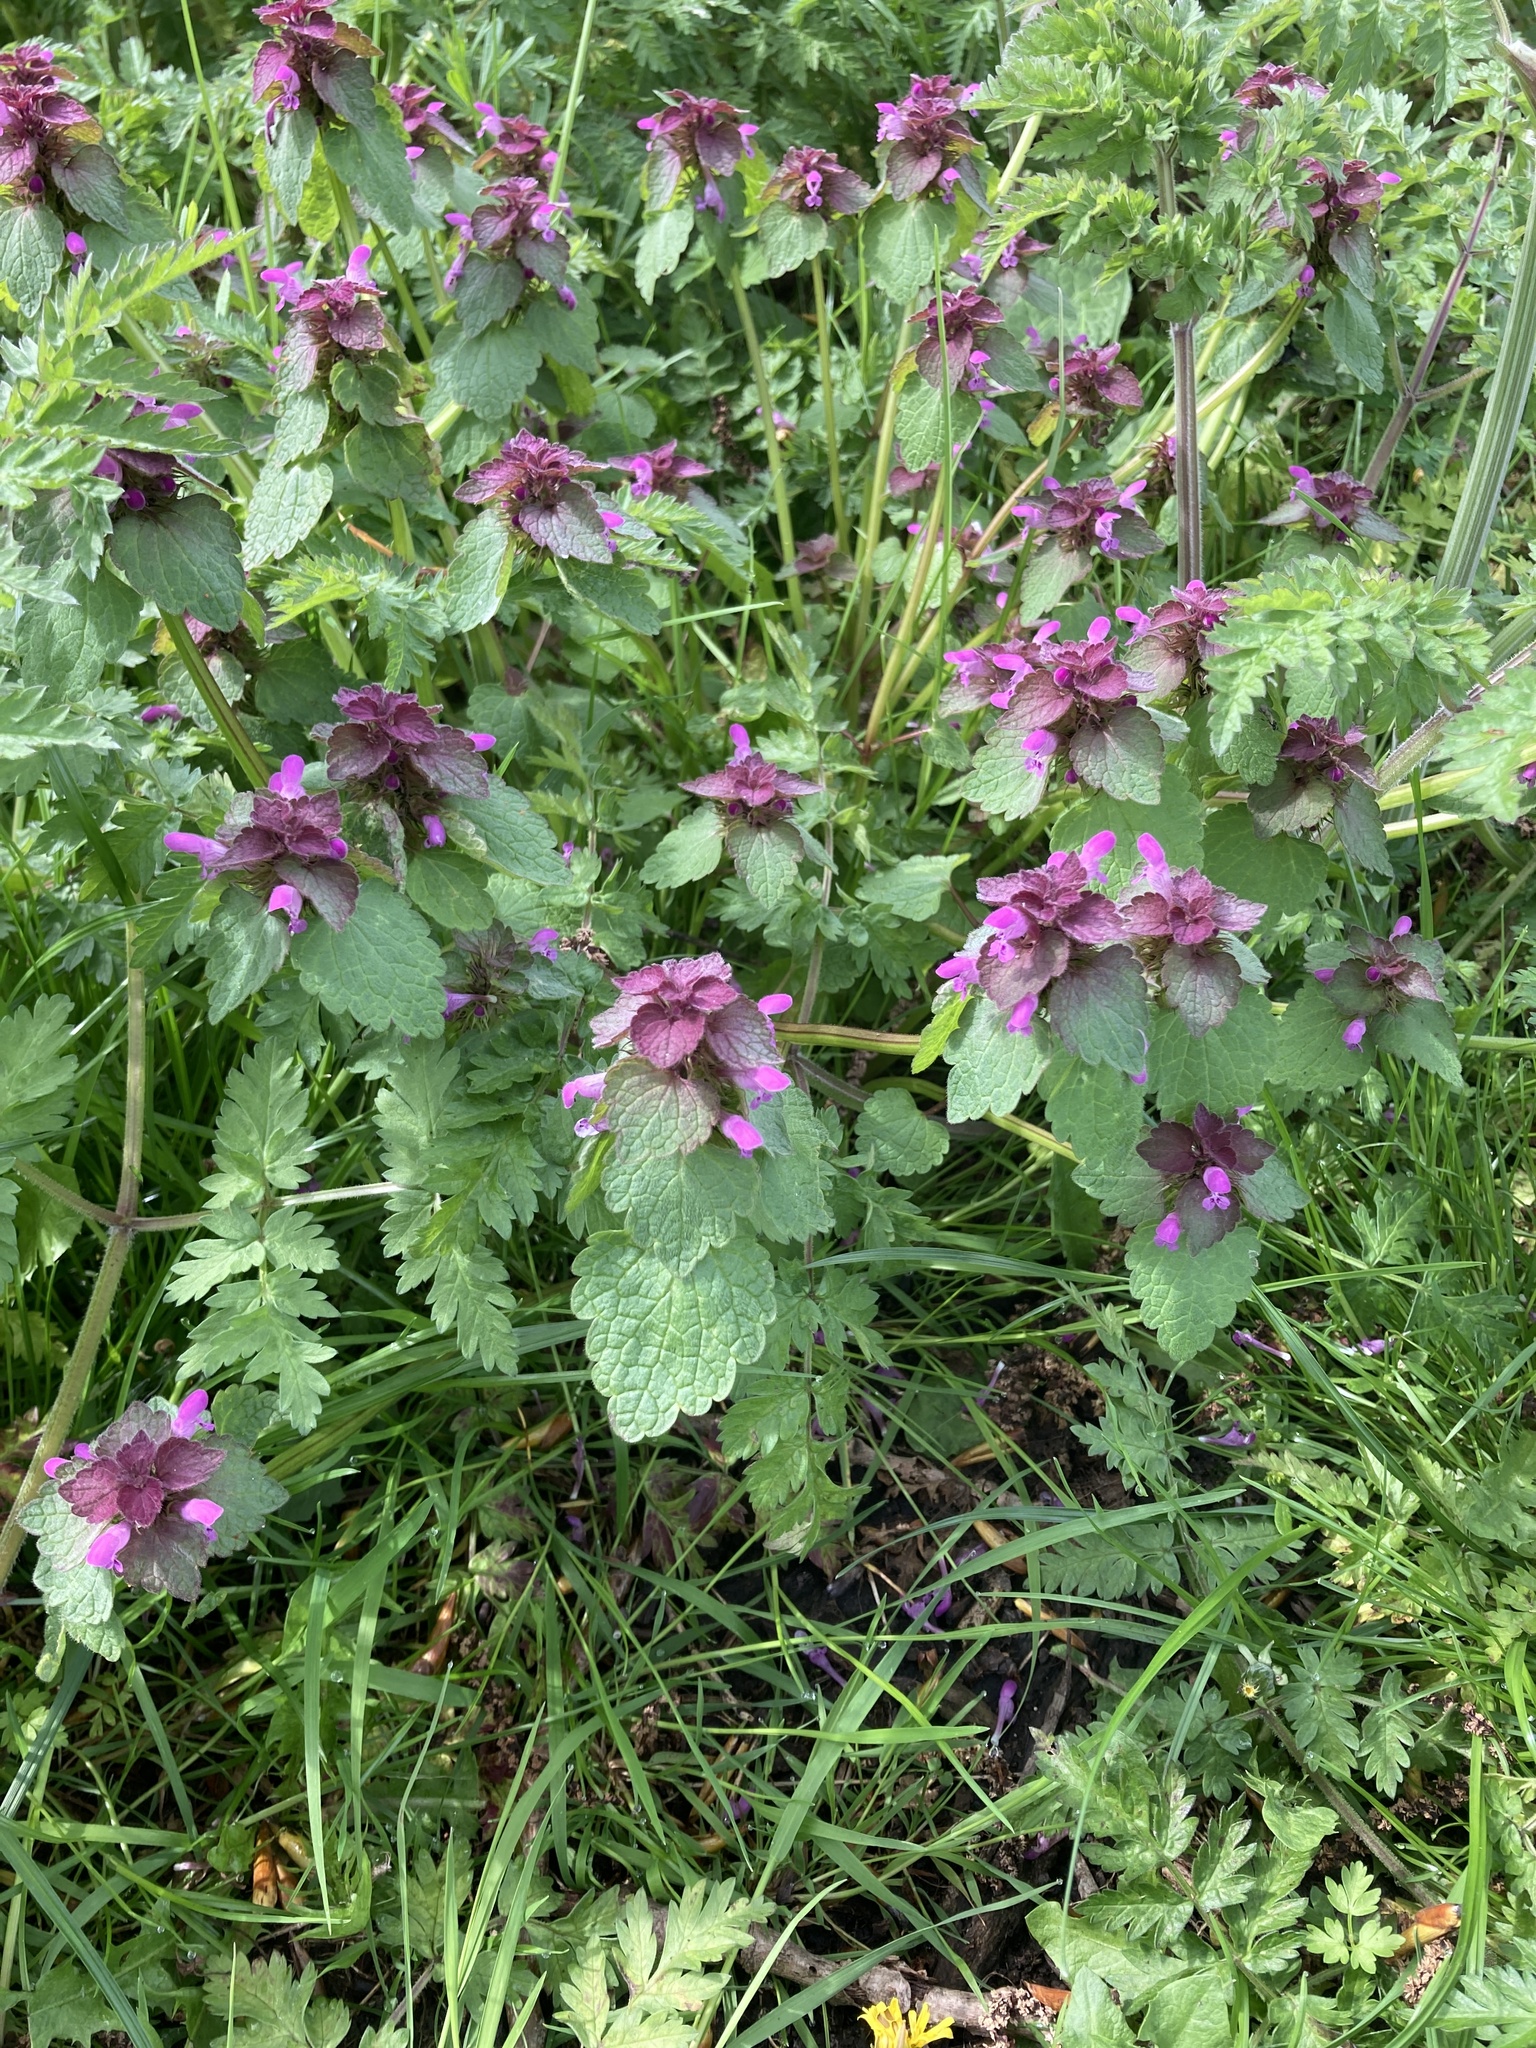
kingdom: Plantae
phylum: Tracheophyta
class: Magnoliopsida
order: Lamiales
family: Lamiaceae
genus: Lamium
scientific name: Lamium purpureum
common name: Red dead-nettle
